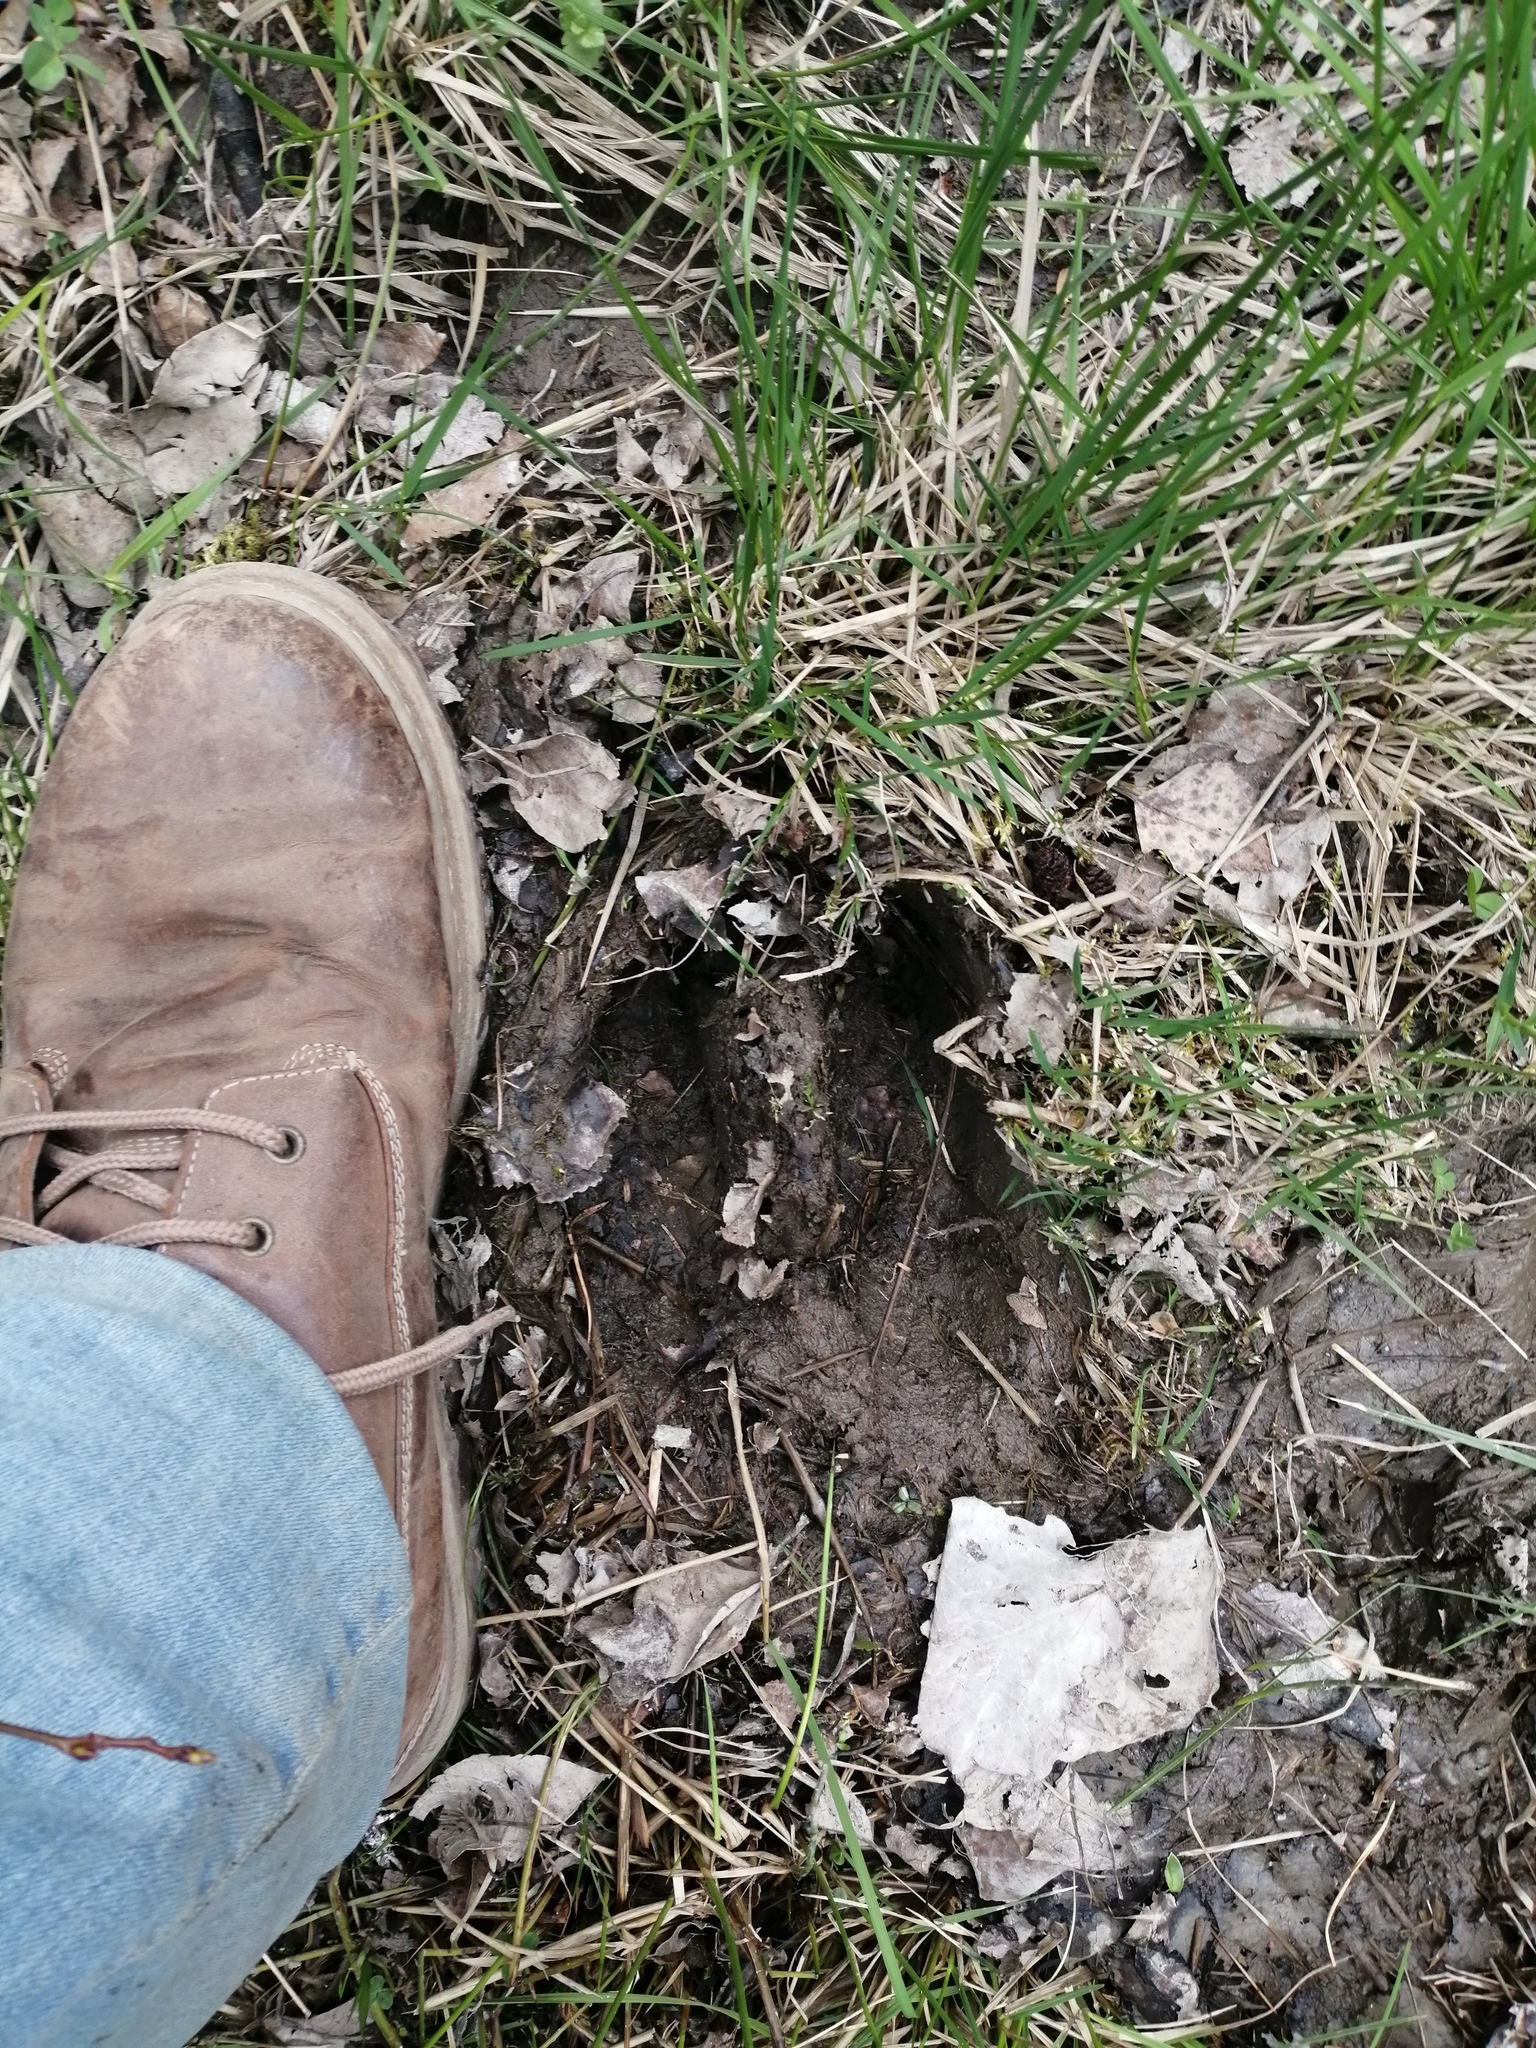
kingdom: Animalia
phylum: Chordata
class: Mammalia
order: Artiodactyla
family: Cervidae
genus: Alces
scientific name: Alces alces
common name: Moose
